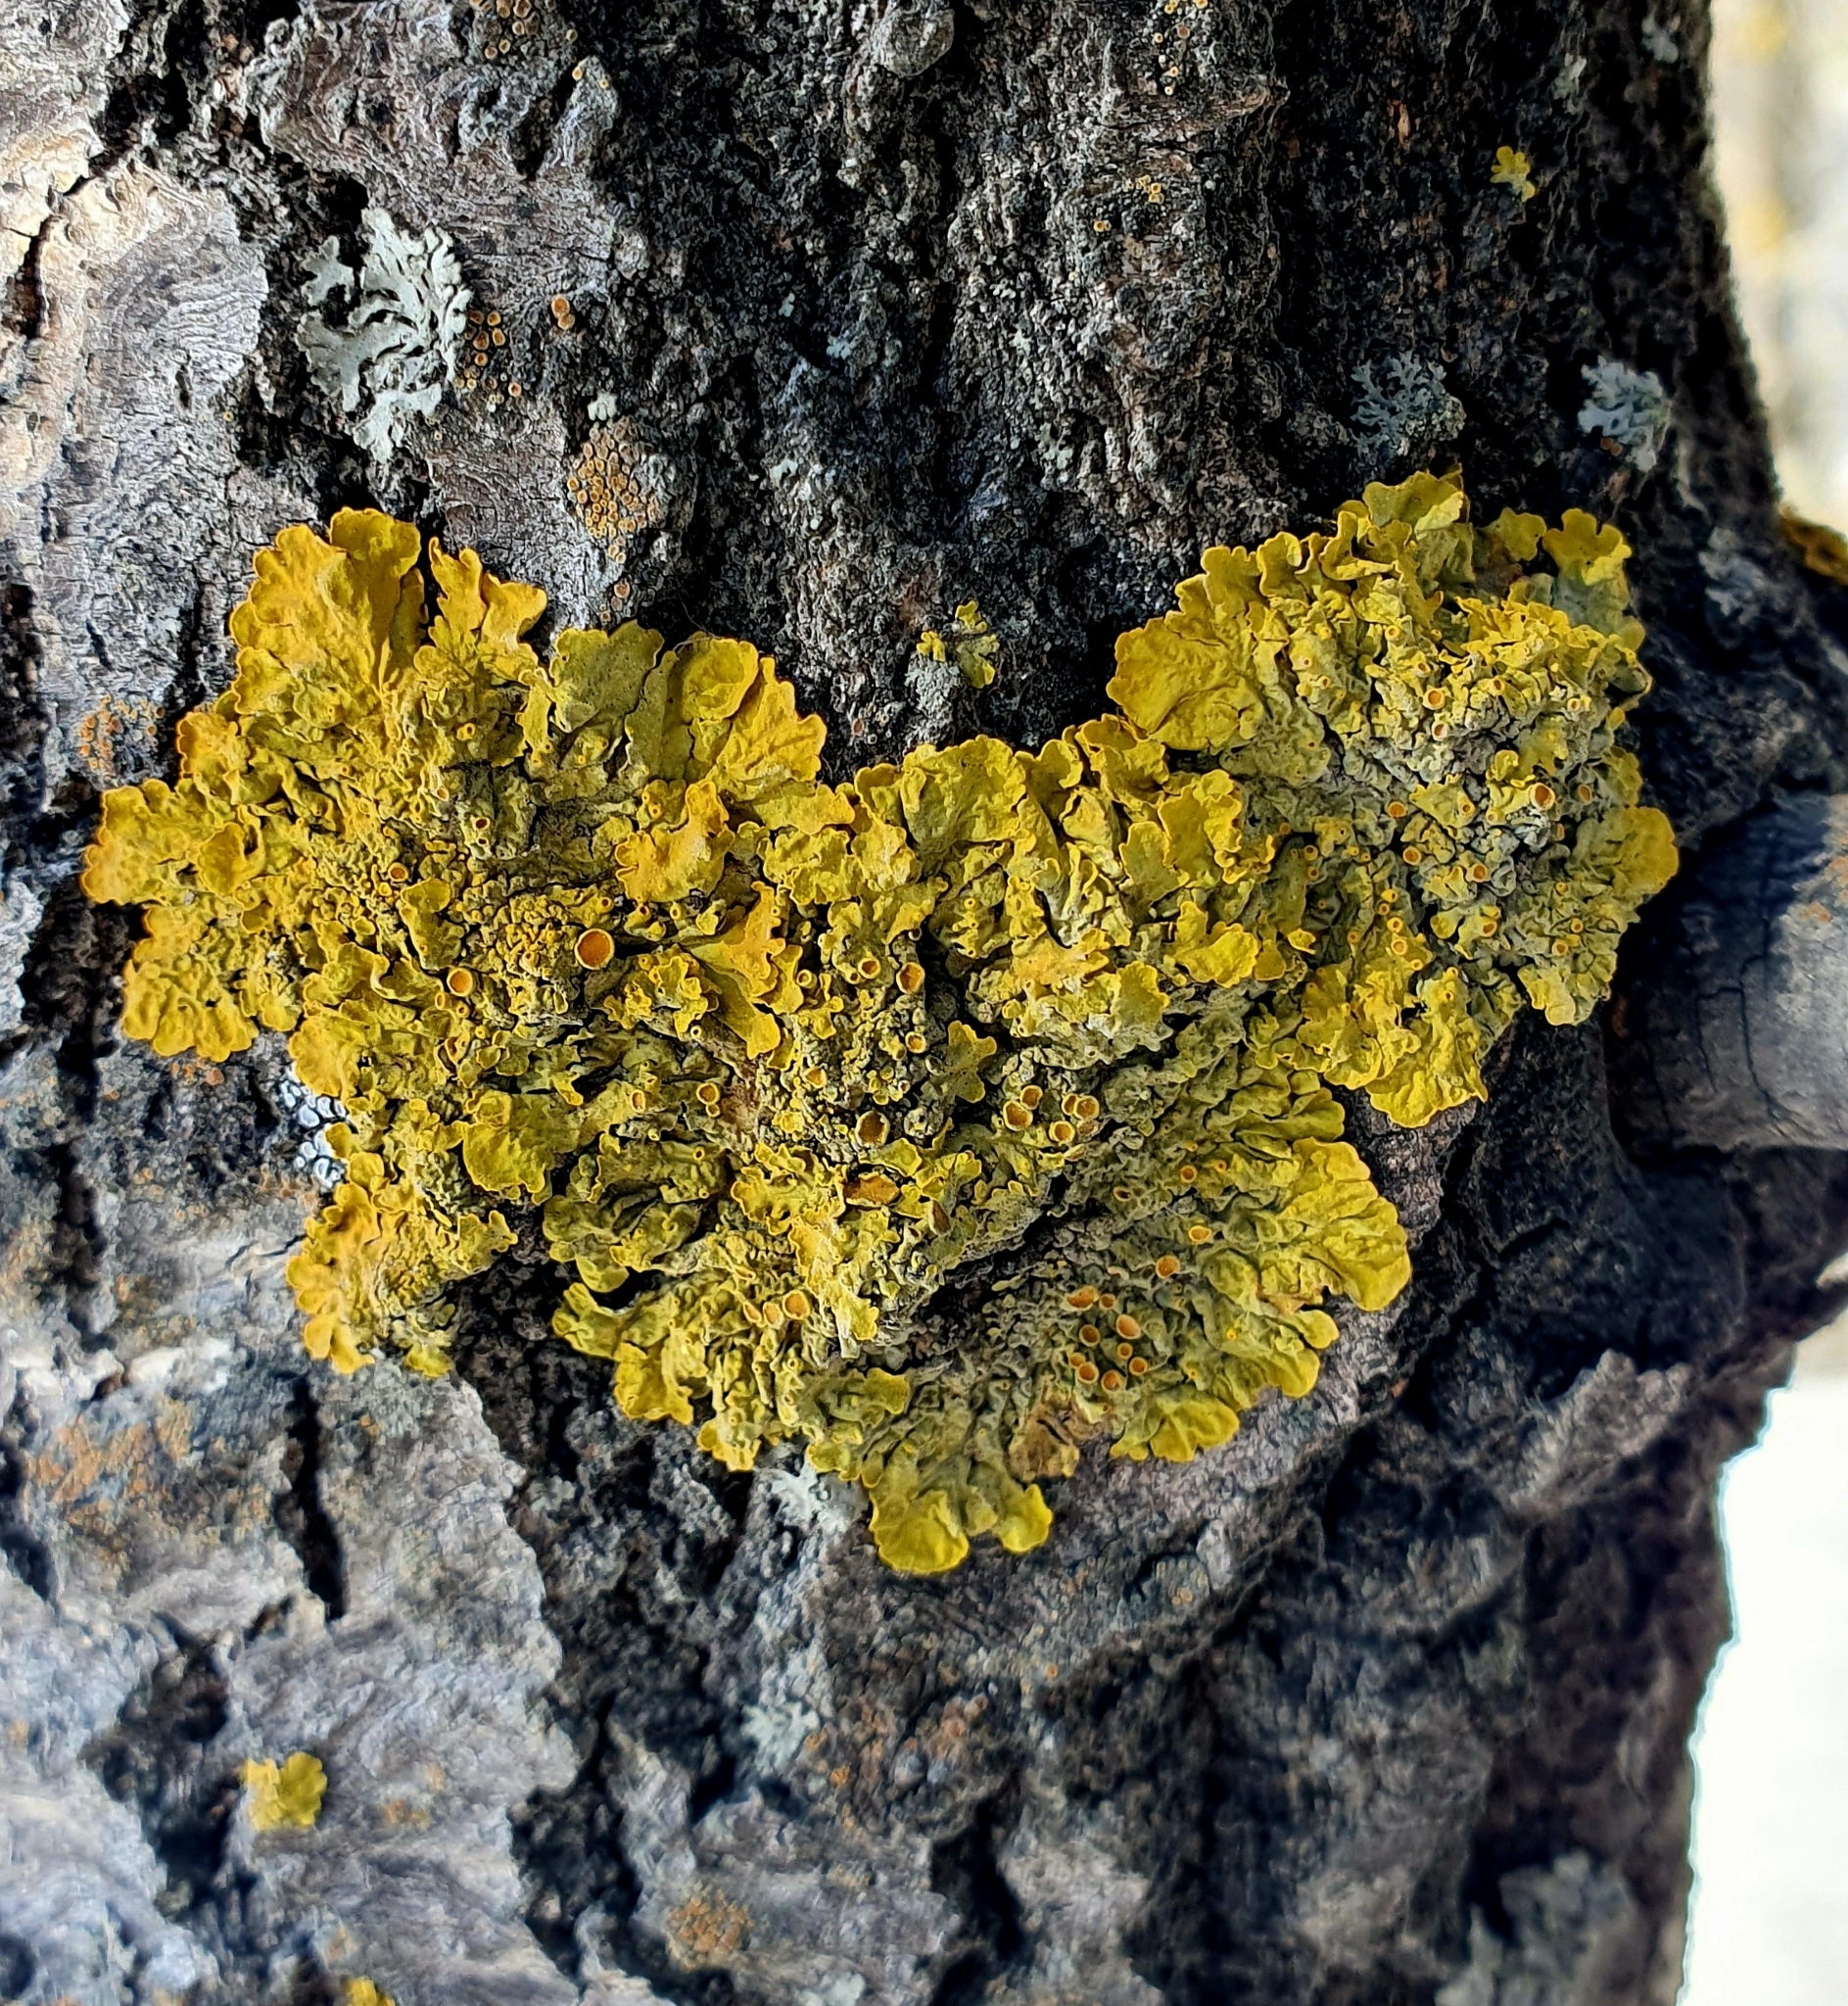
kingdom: Fungi
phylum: Ascomycota
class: Lecanoromycetes
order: Teloschistales
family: Teloschistaceae
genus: Xanthoria
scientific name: Xanthoria parietina
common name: Common orange lichen
